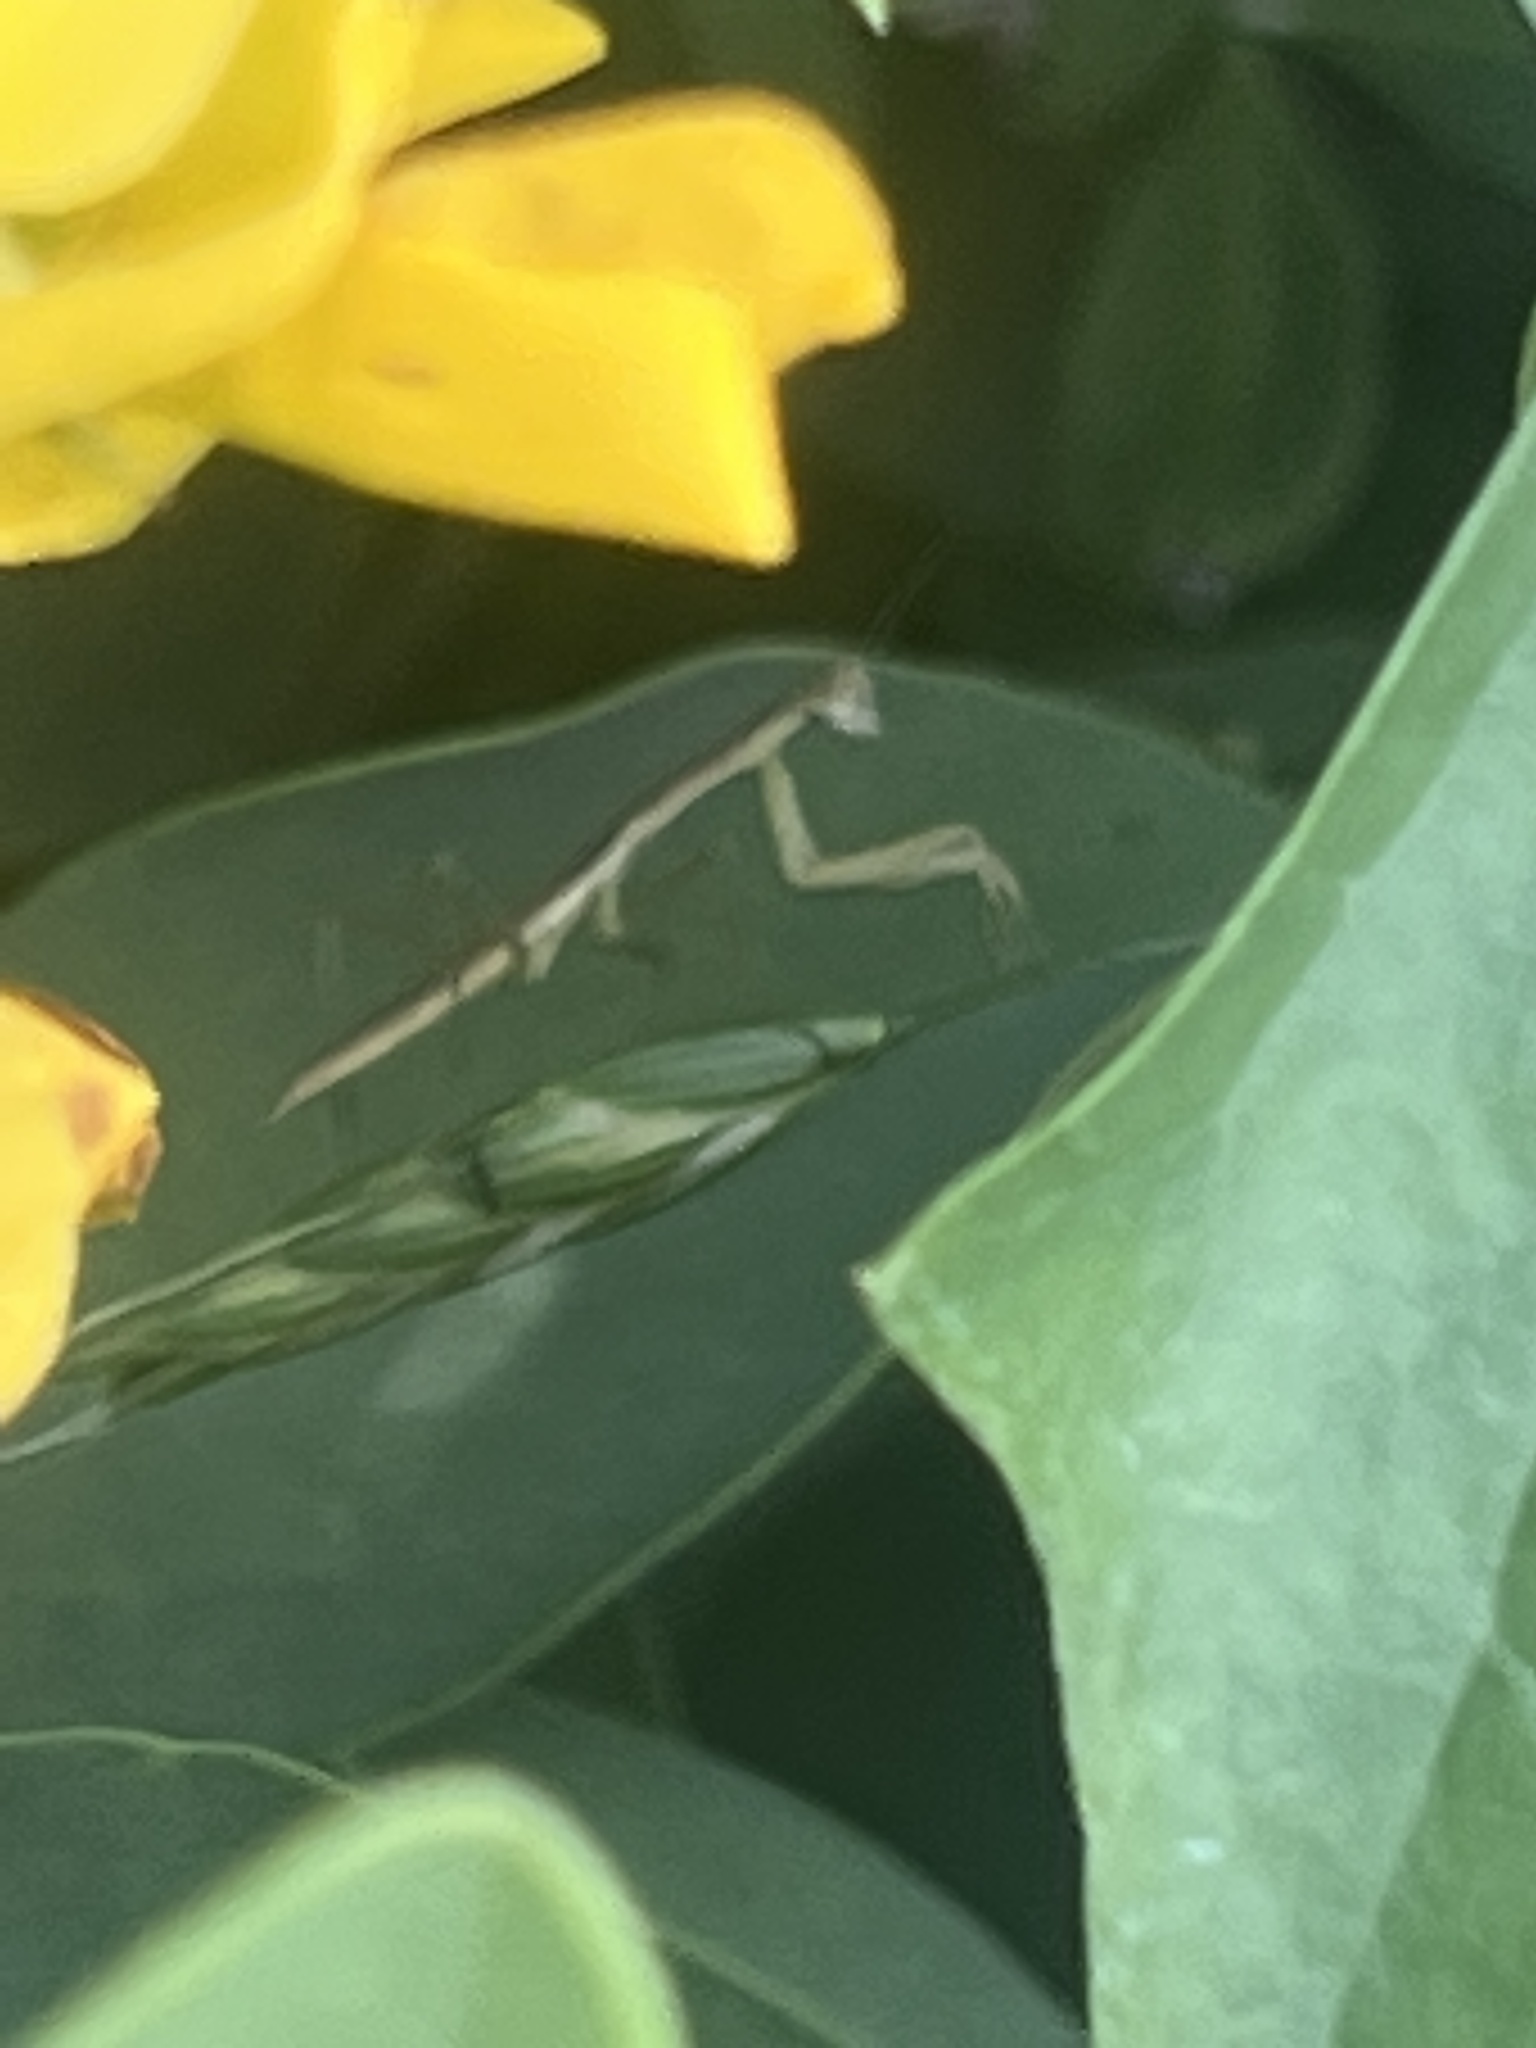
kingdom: Animalia
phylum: Arthropoda
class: Insecta
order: Mantodea
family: Mantidae
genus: Tenodera
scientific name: Tenodera sinensis
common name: Chinese mantis
